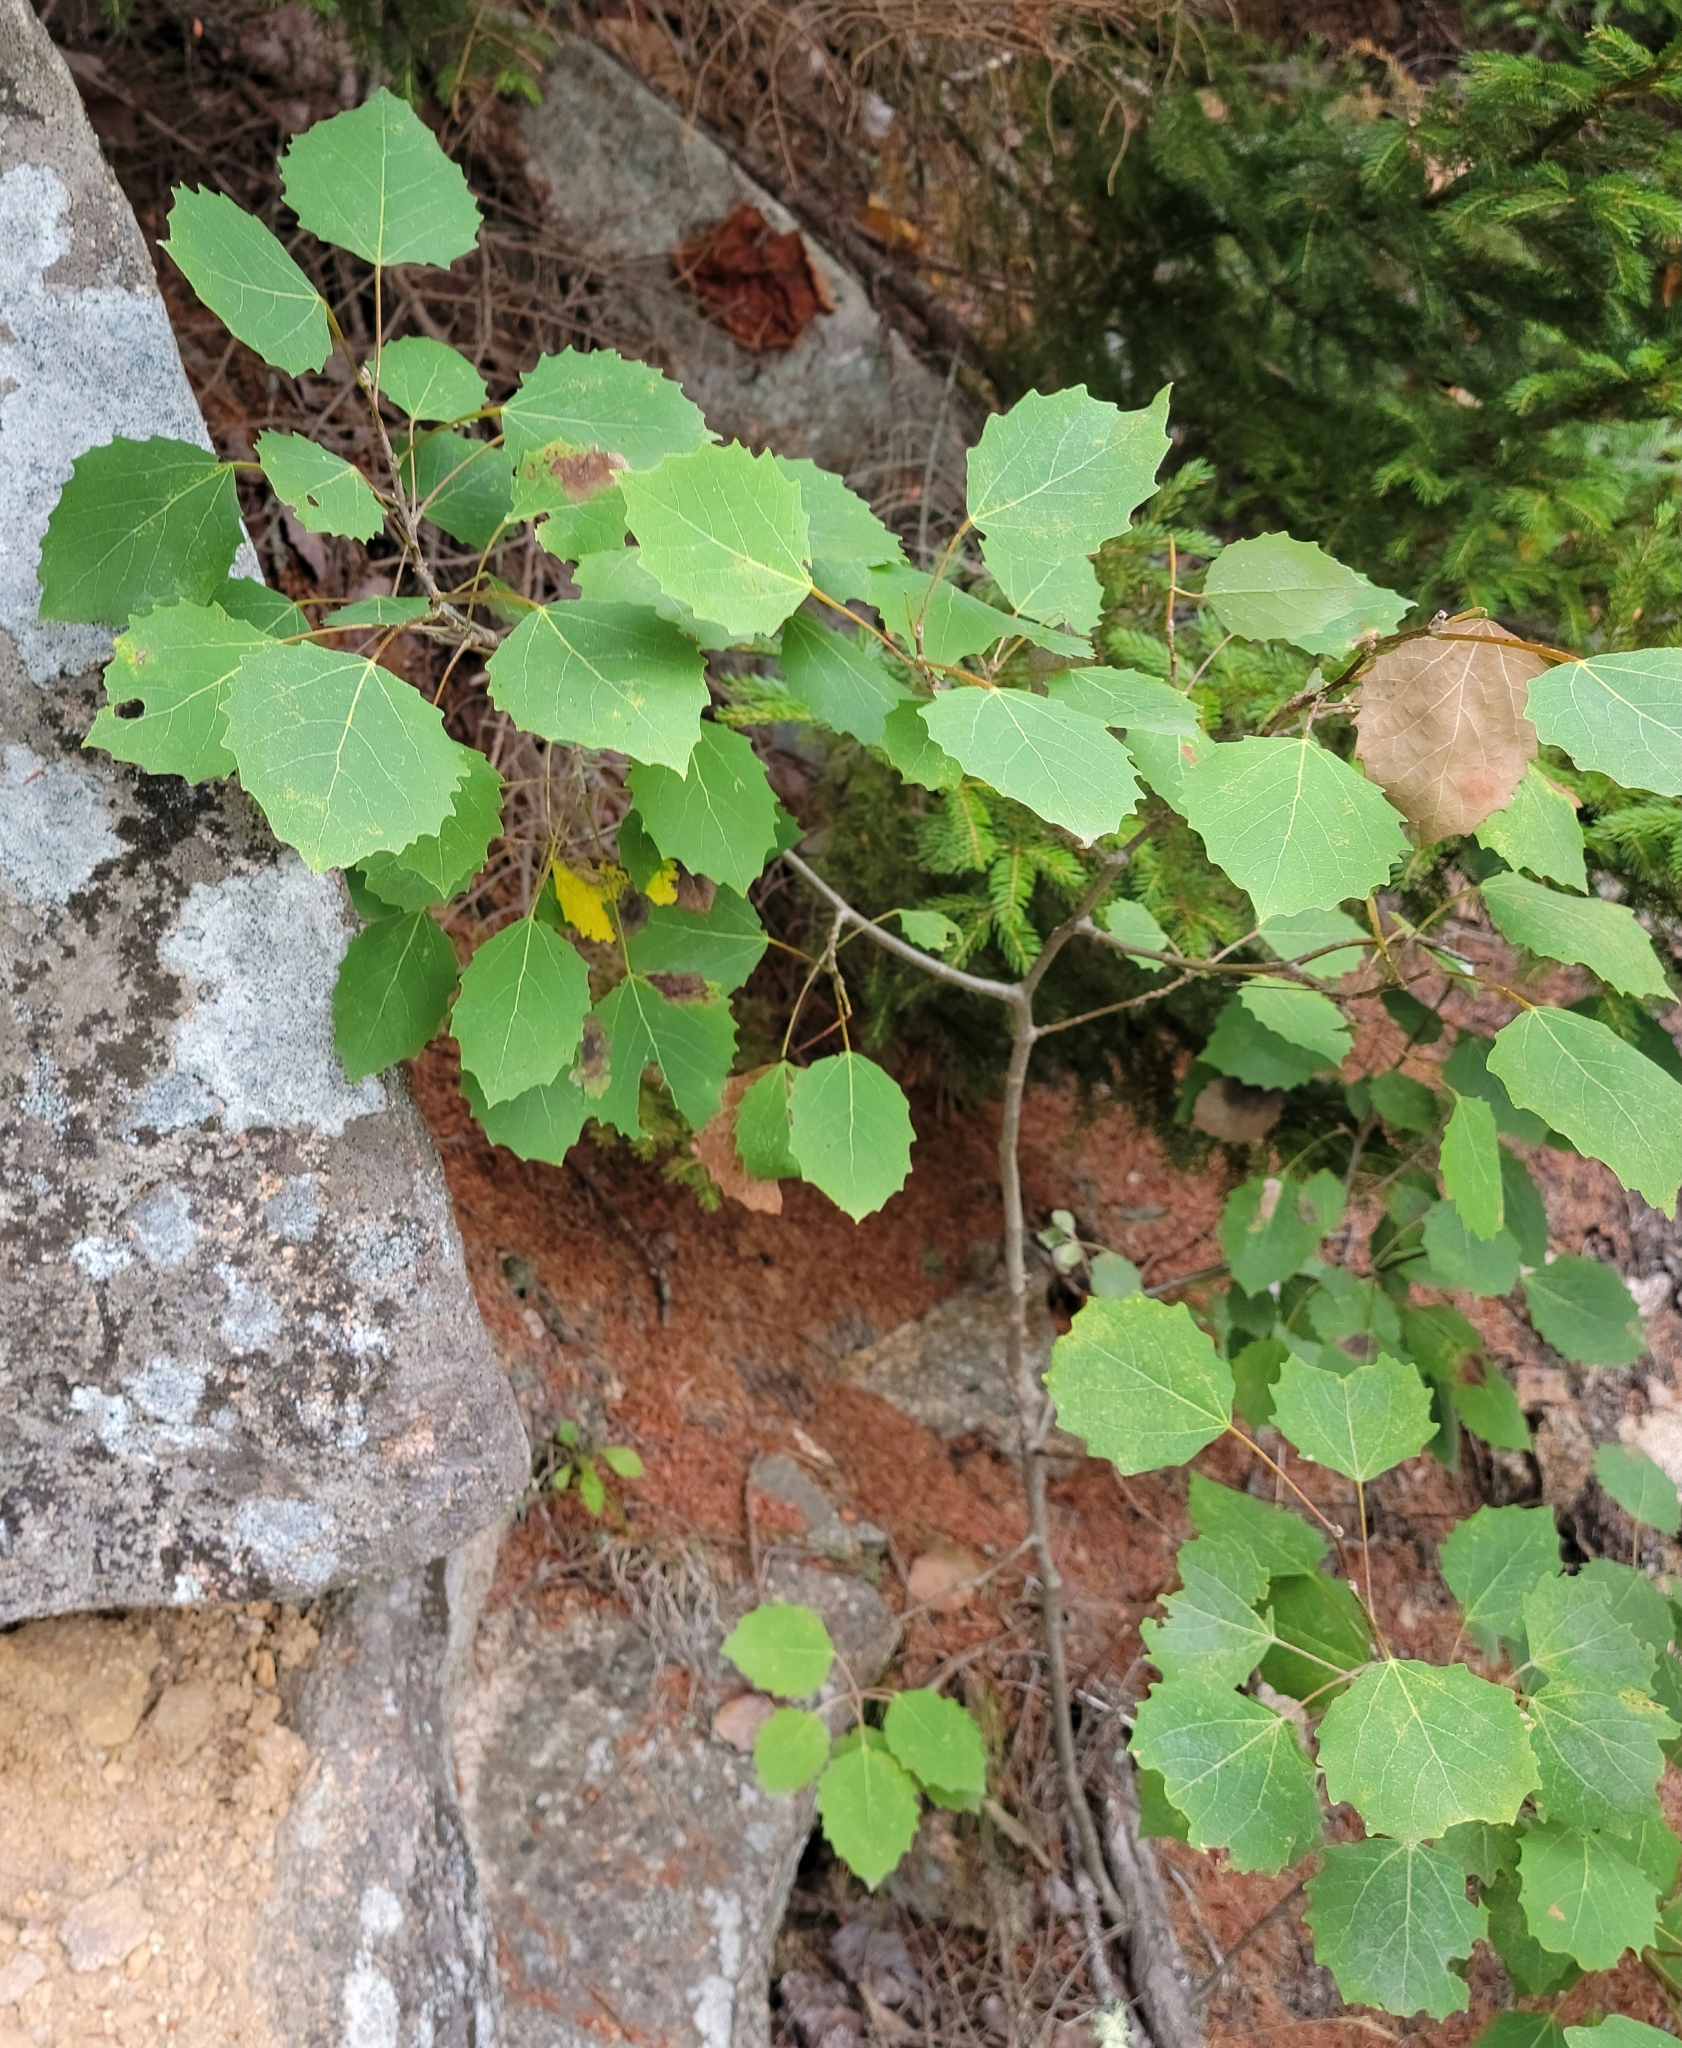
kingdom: Plantae
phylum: Tracheophyta
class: Magnoliopsida
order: Malpighiales
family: Salicaceae
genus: Populus
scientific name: Populus grandidentata
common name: Bigtooth aspen
